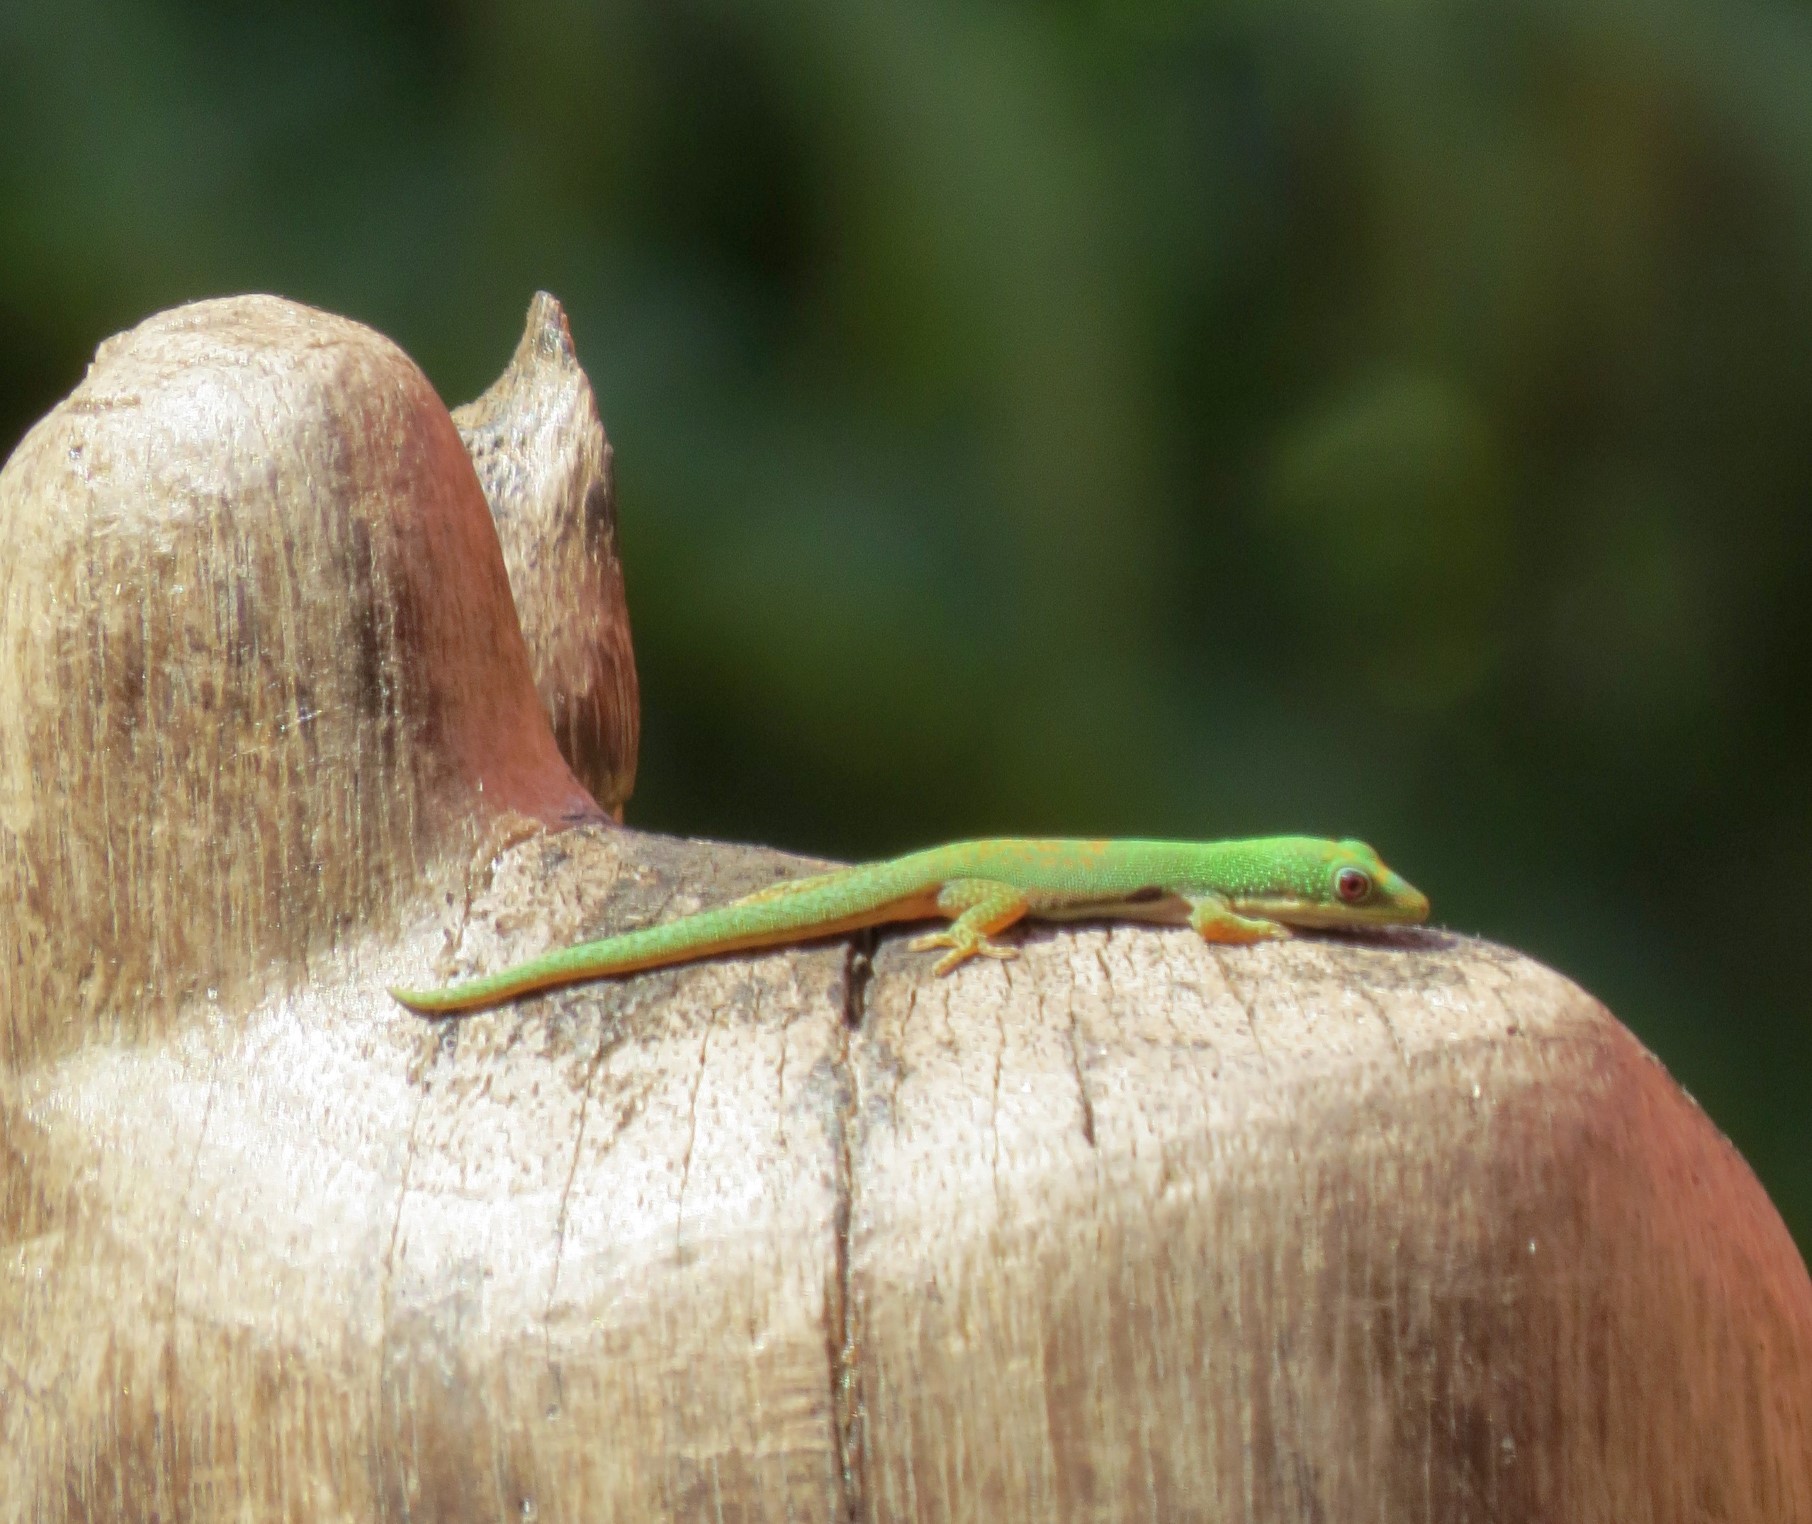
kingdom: Animalia
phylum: Chordata
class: Squamata
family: Gekkonidae
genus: Phelsuma
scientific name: Phelsuma dorsivittata
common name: Striped day gecko
